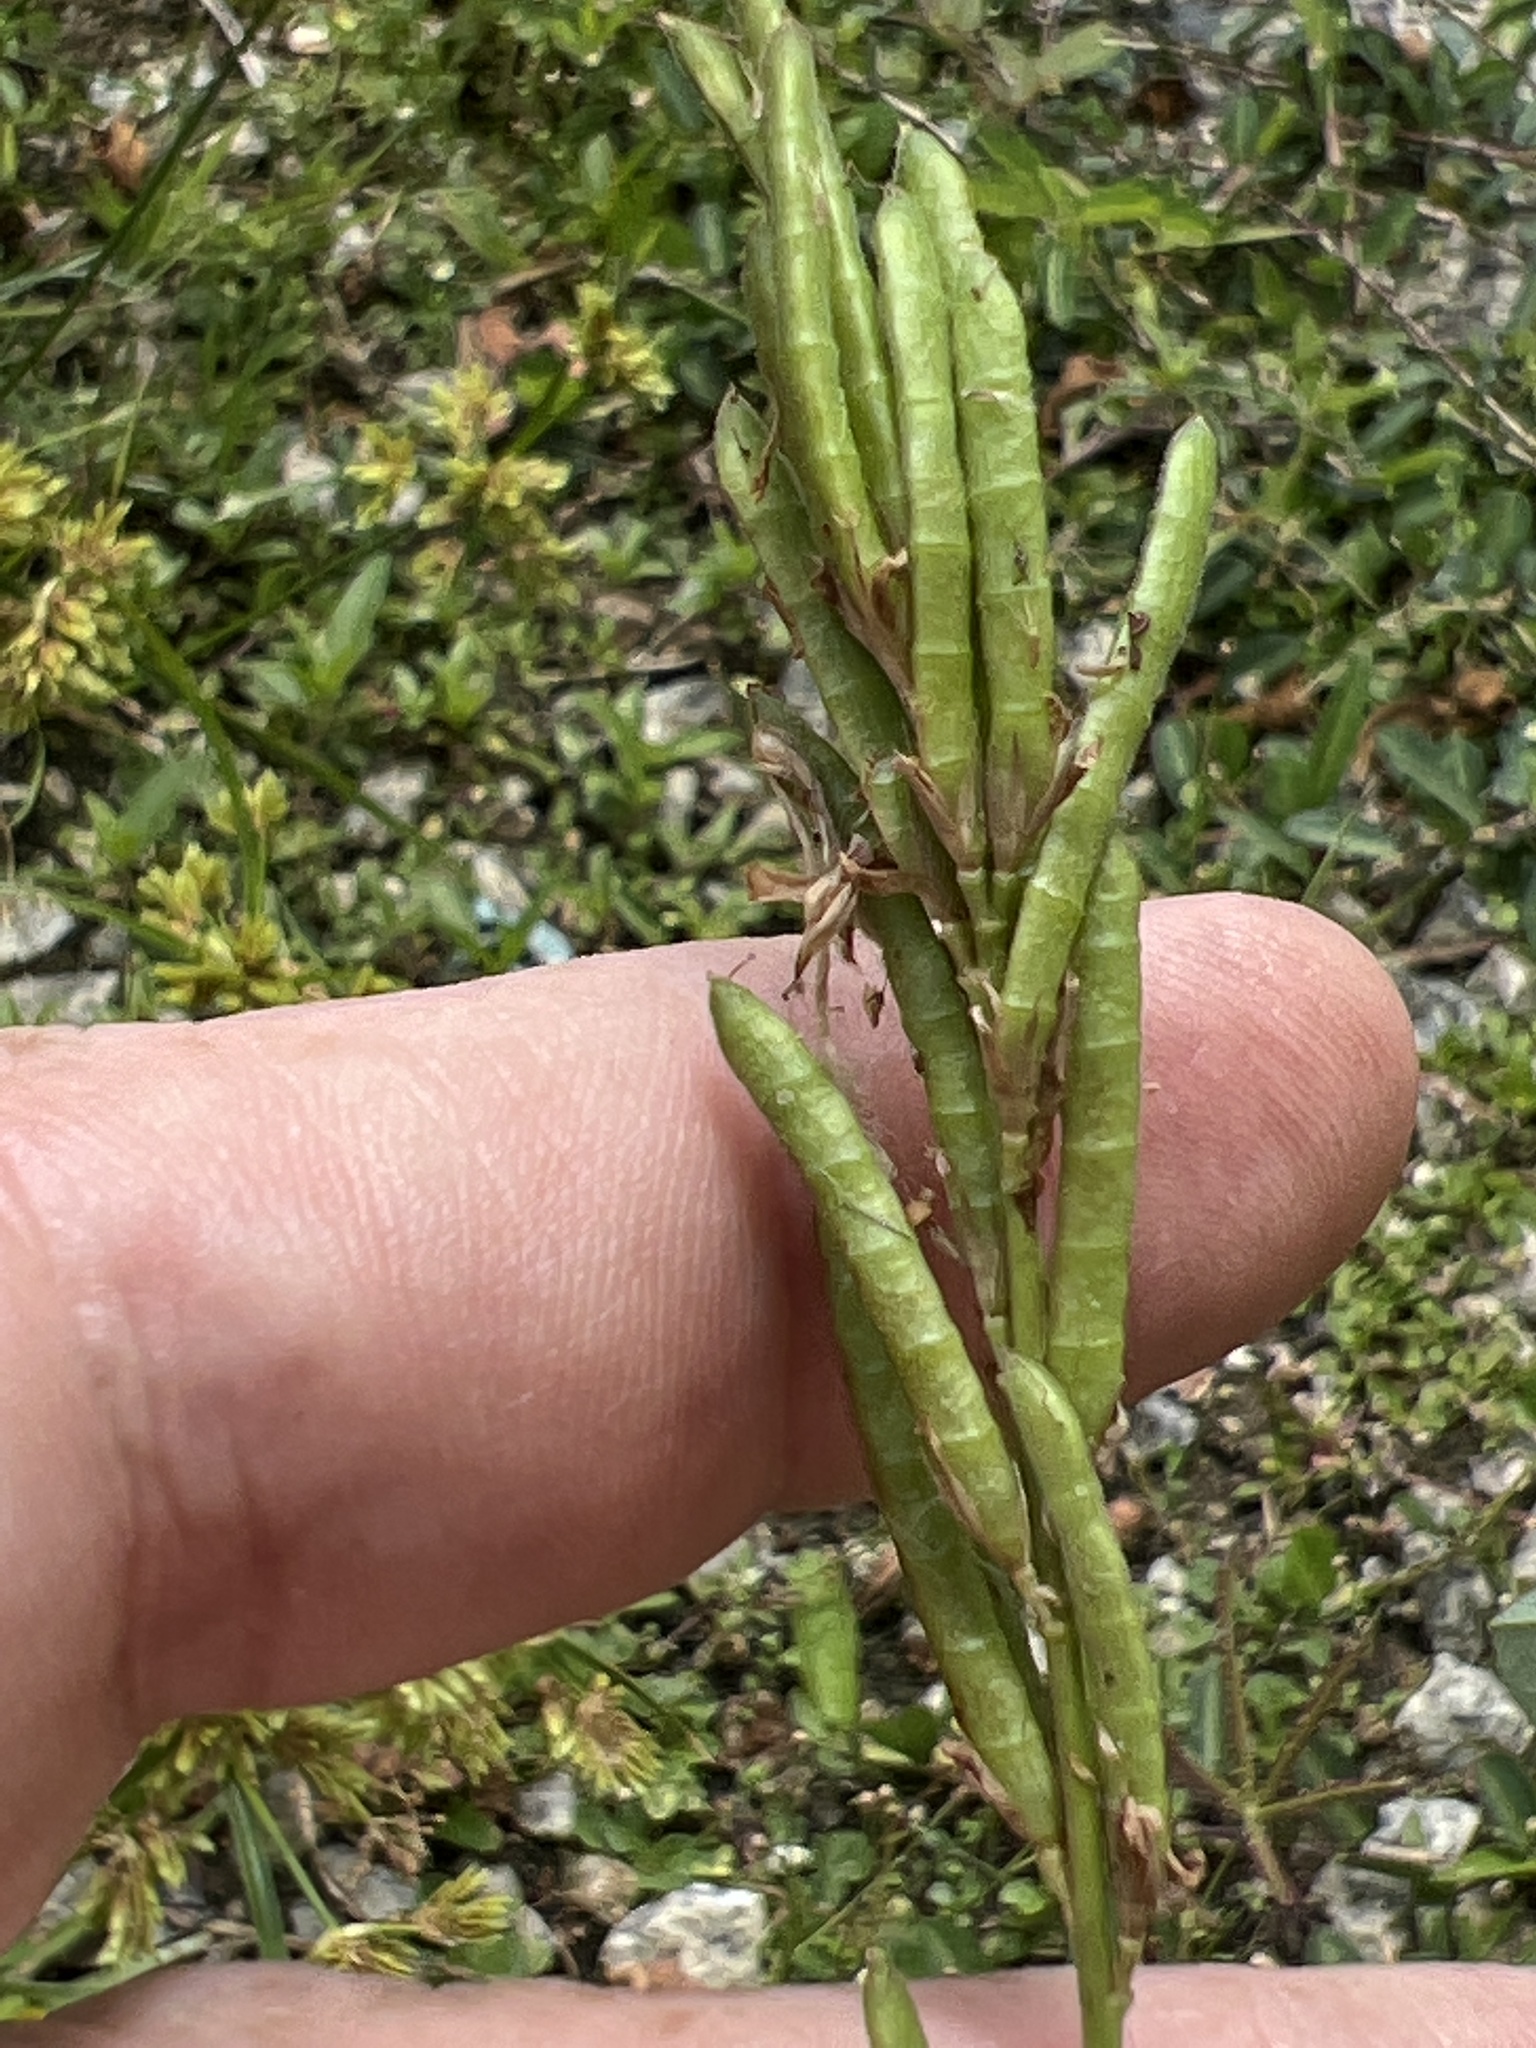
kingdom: Plantae
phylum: Tracheophyta
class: Magnoliopsida
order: Fabales
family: Fabaceae
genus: Alysicarpus
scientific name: Alysicarpus vaginalis
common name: White moneywort
